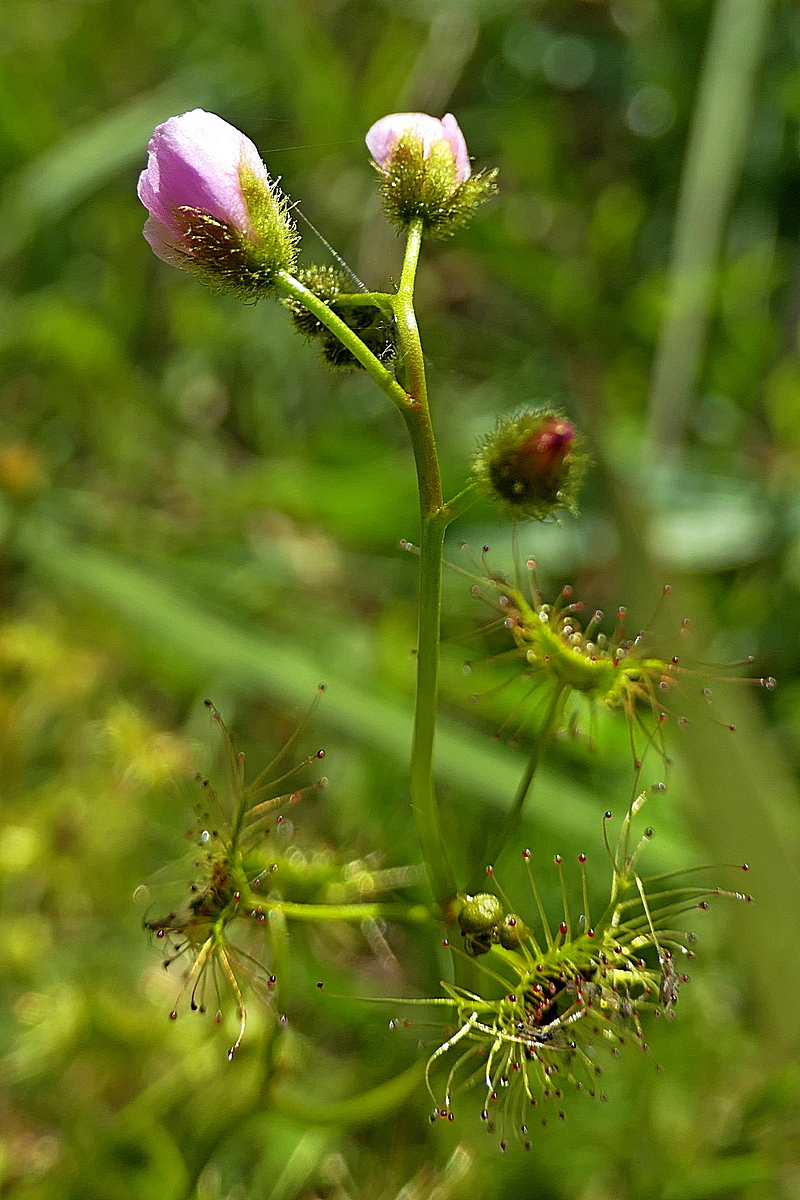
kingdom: Plantae
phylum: Tracheophyta
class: Magnoliopsida
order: Caryophyllales
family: Droseraceae
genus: Drosera
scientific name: Drosera gunniana
